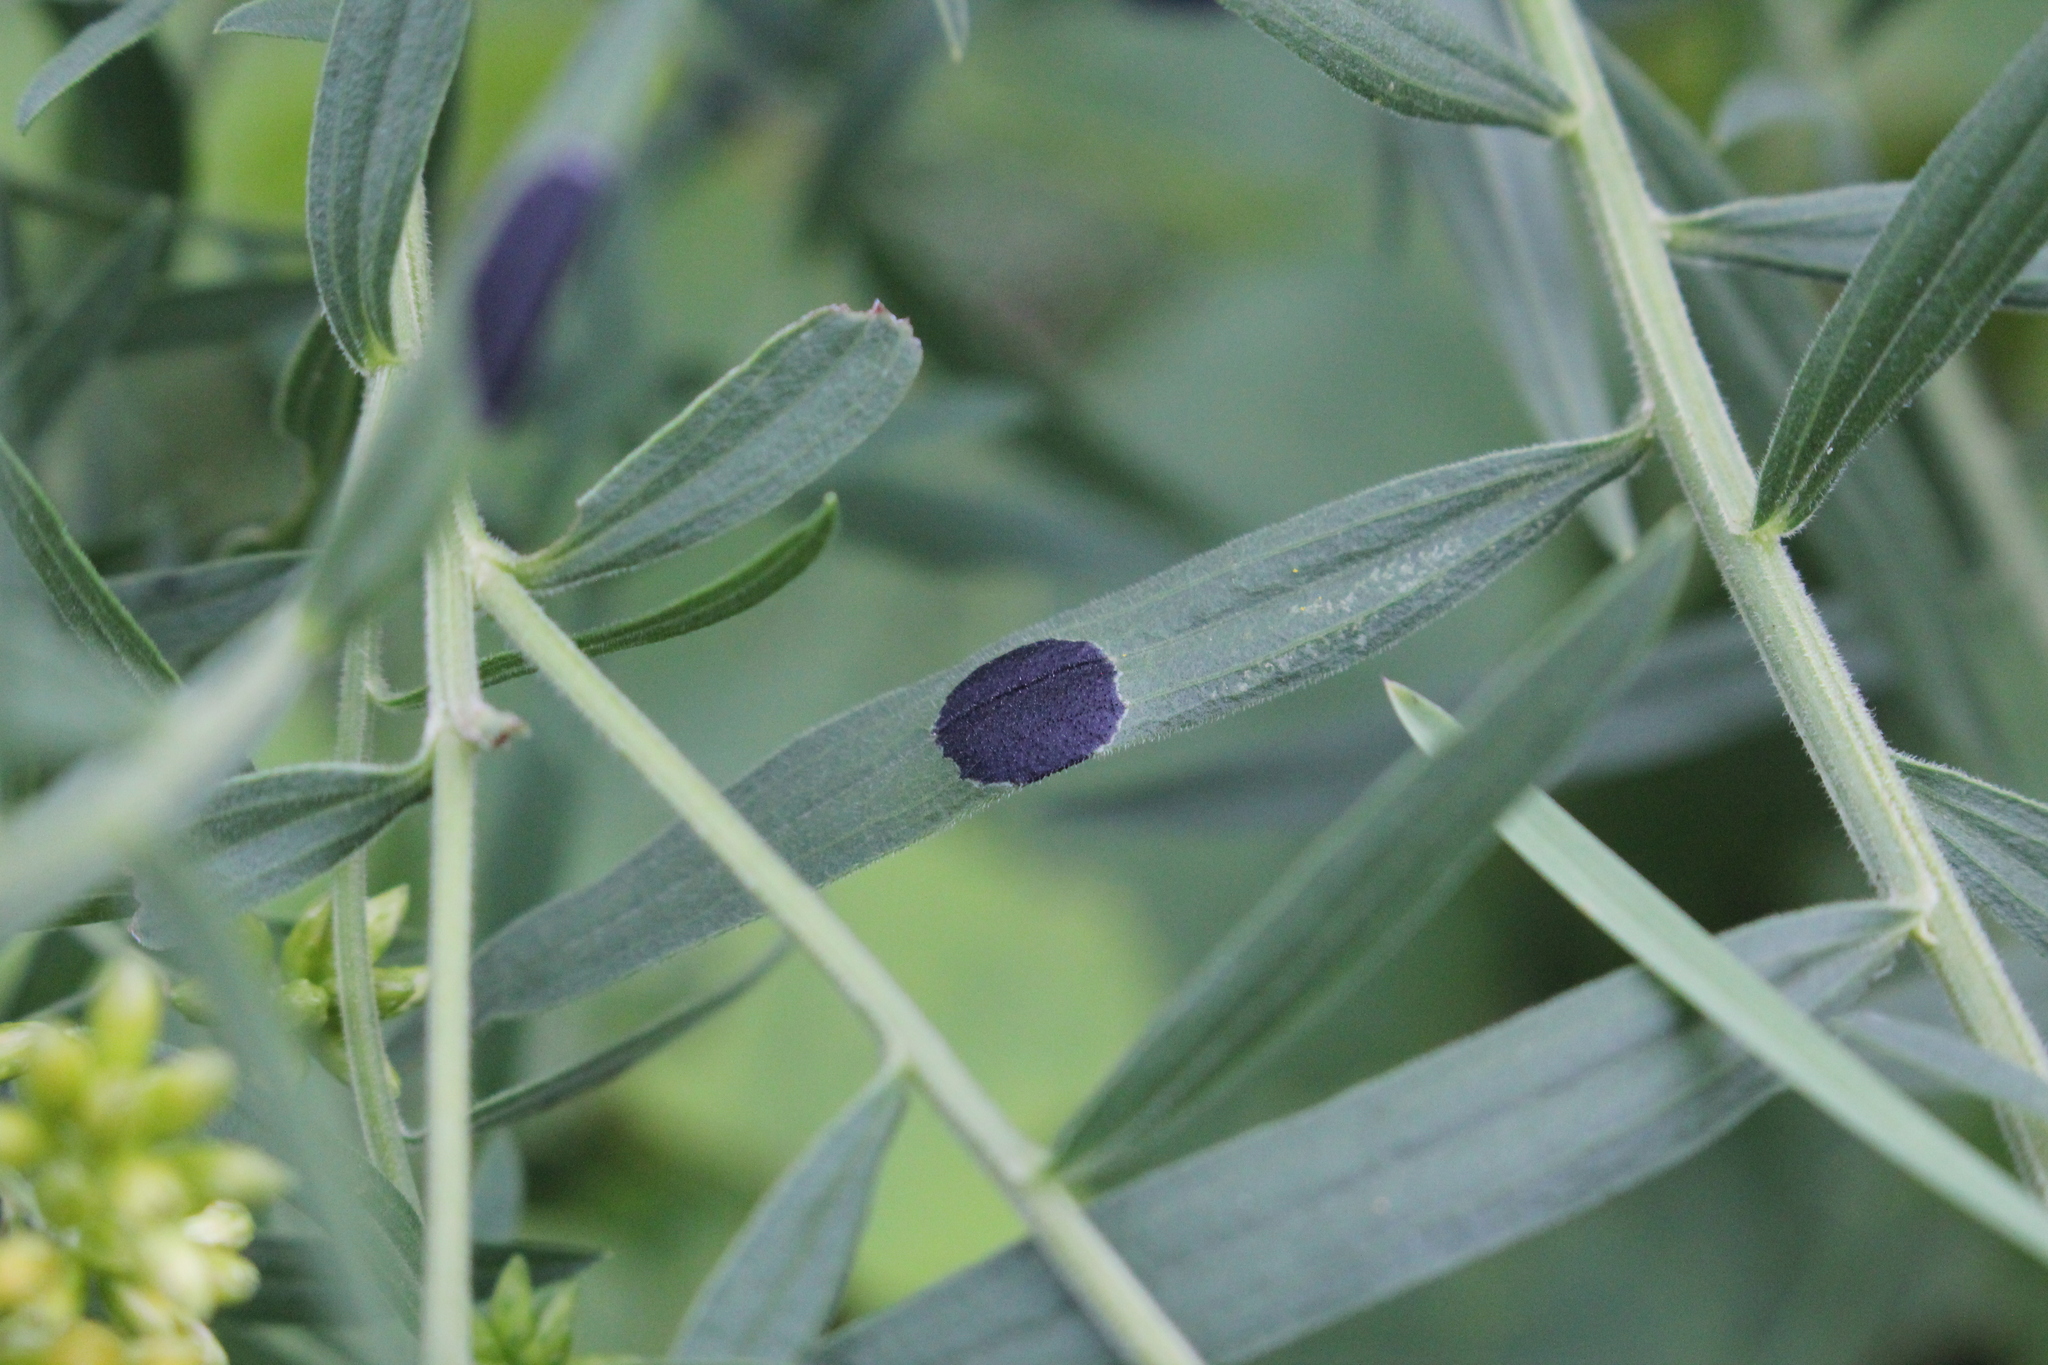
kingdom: Animalia
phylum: Arthropoda
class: Insecta
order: Diptera
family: Cecidomyiidae
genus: Asteromyia
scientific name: Asteromyia euthamiae
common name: Euthamia leaf gall midge
